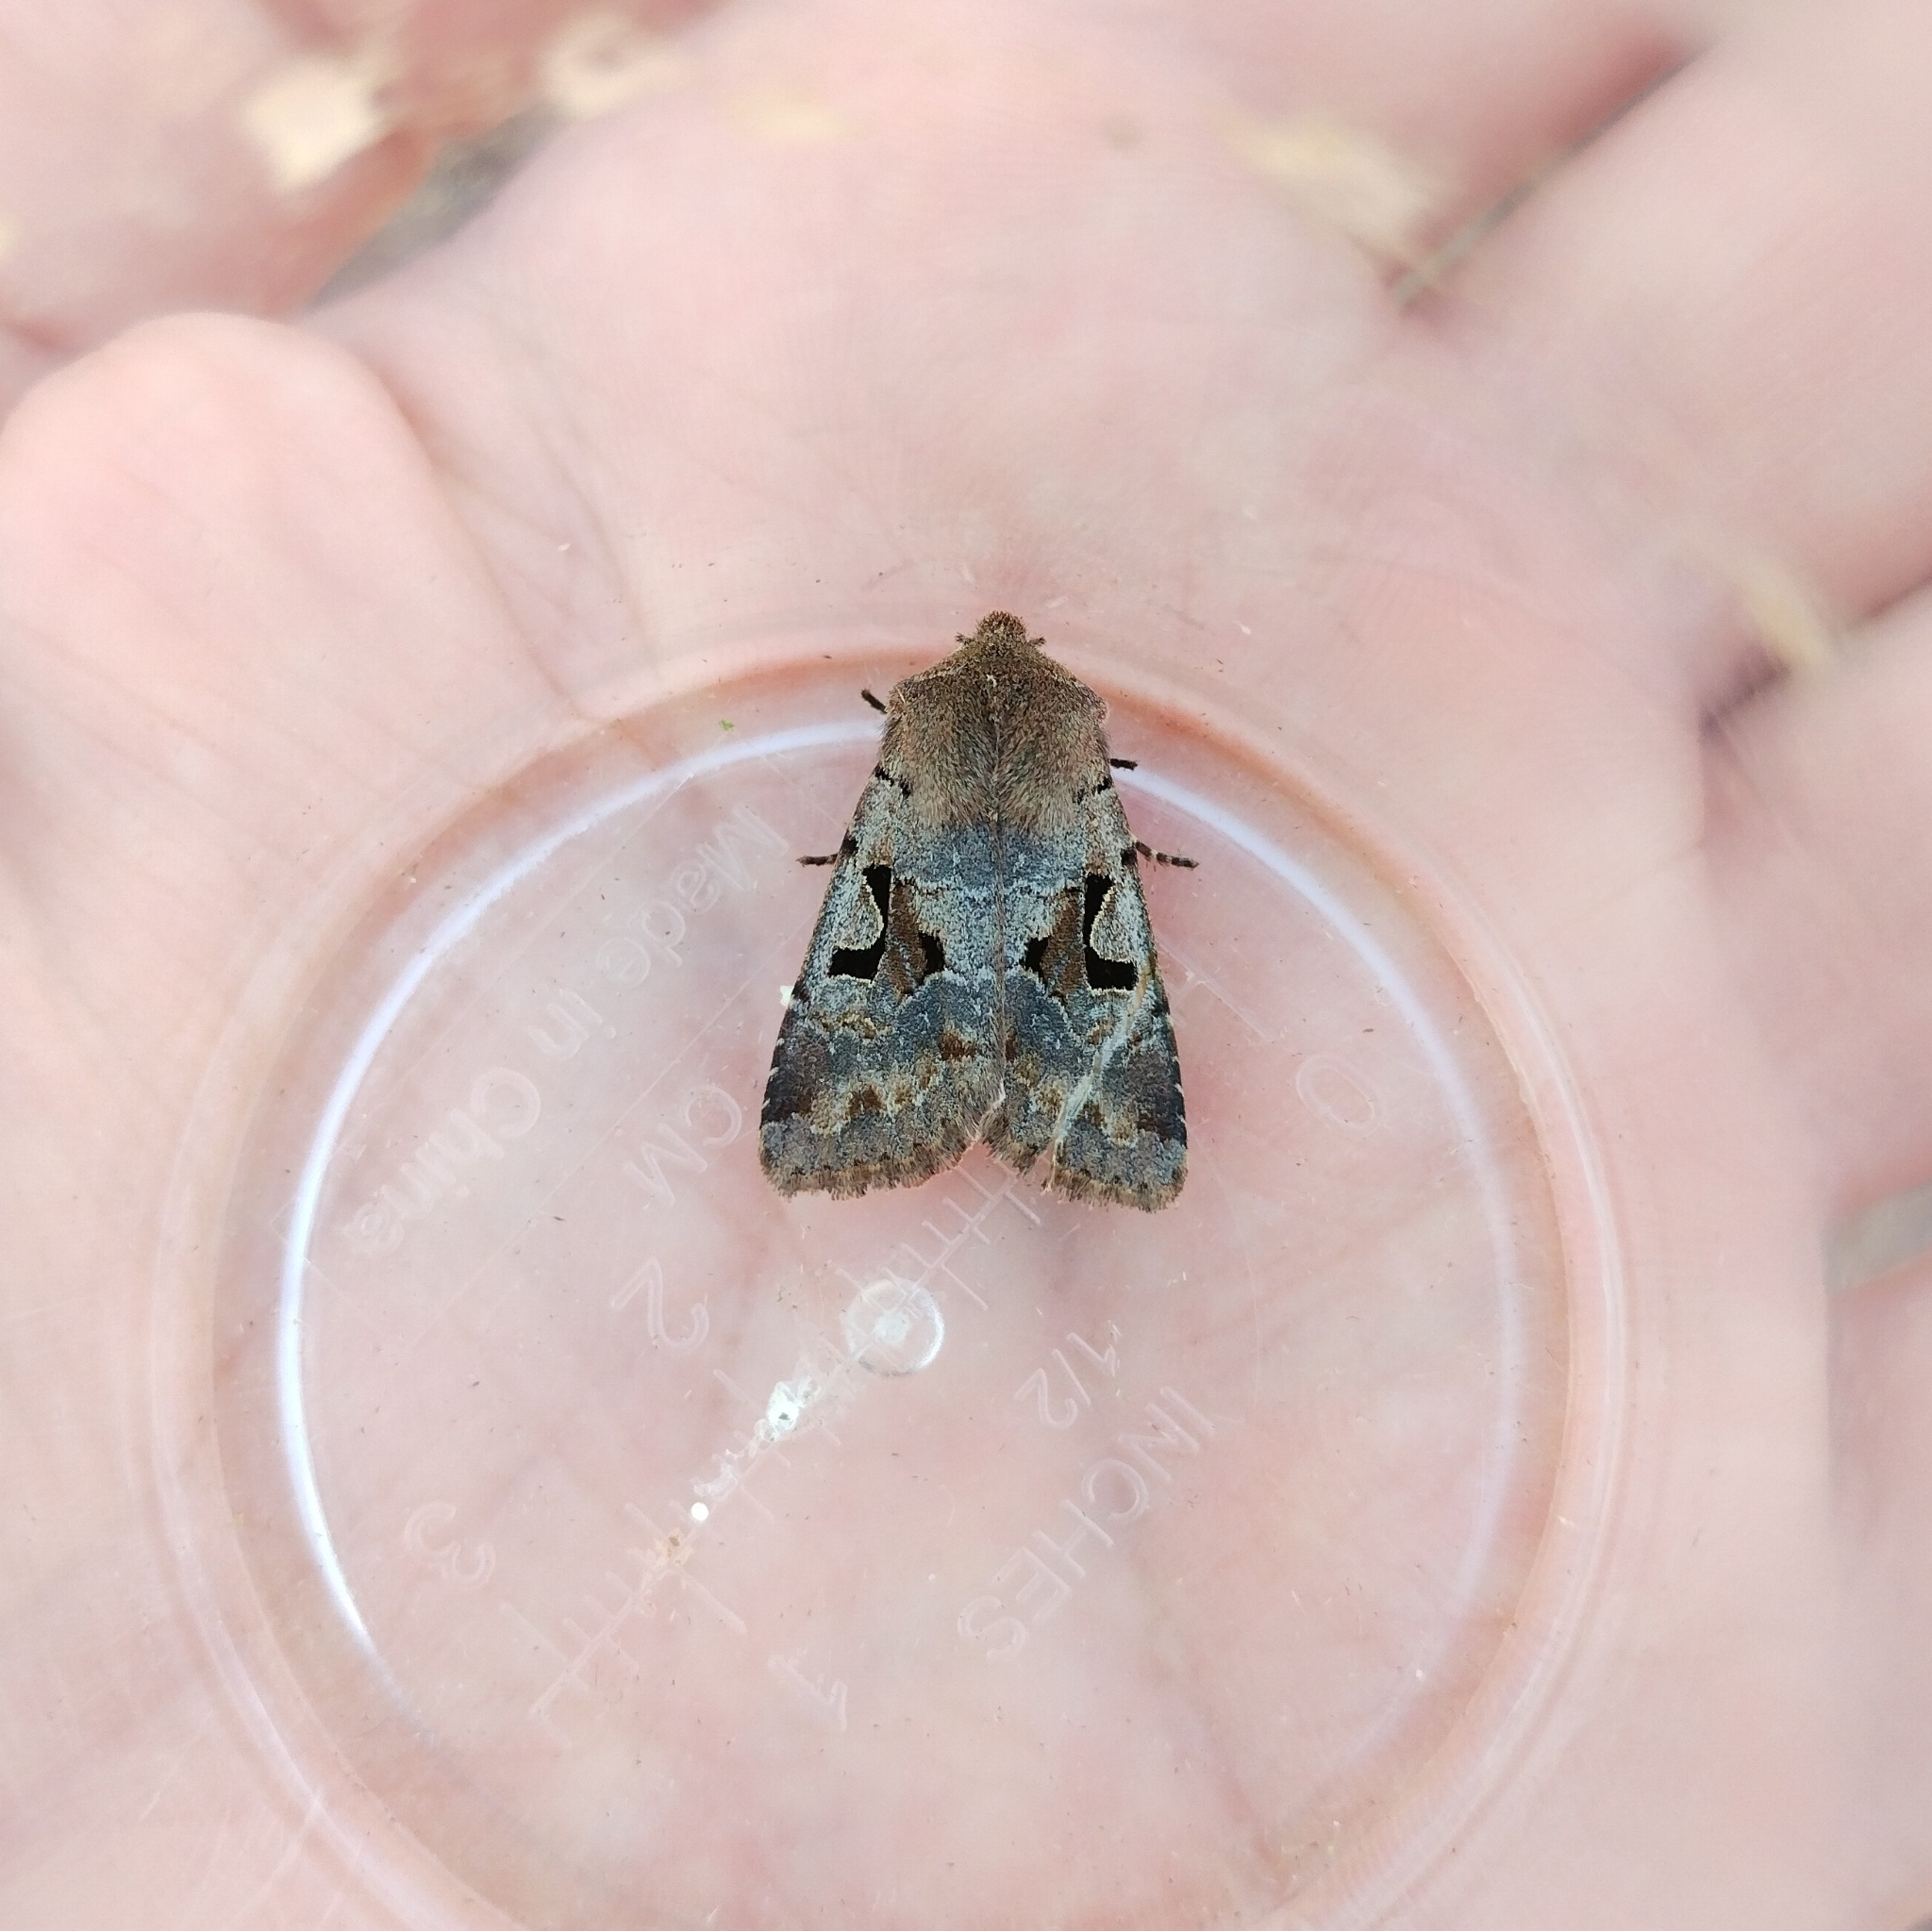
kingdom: Animalia
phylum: Arthropoda
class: Insecta
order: Lepidoptera
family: Noctuidae
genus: Orthosia
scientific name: Orthosia gothica
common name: Hebrew character
